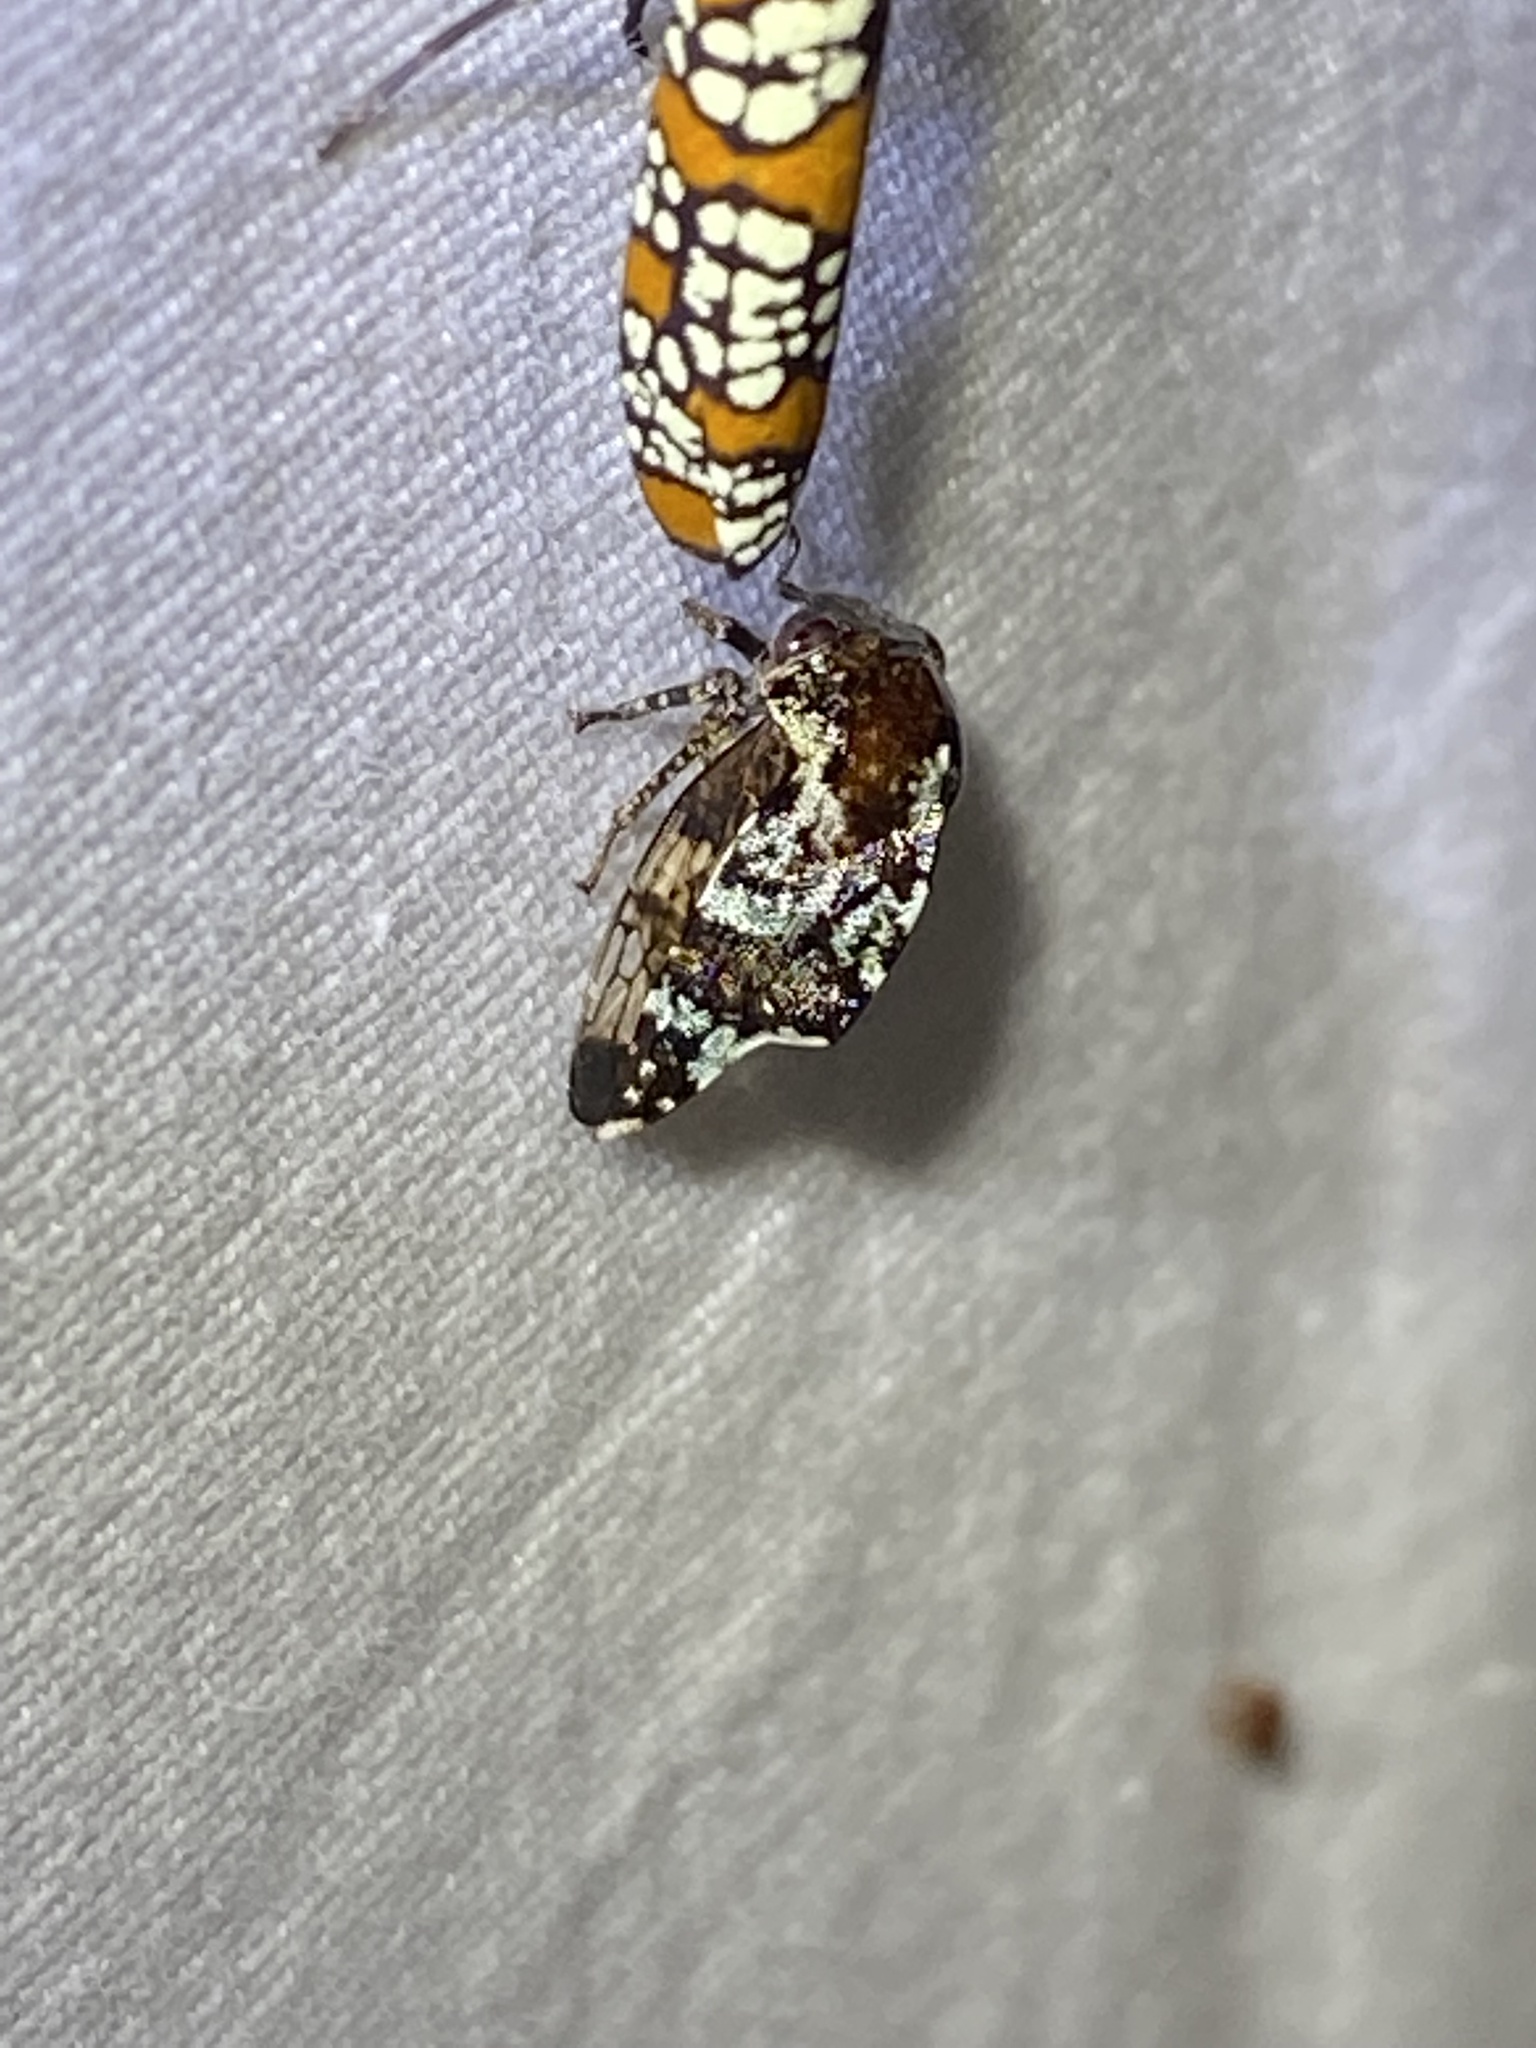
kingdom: Animalia
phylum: Arthropoda
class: Insecta
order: Hemiptera
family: Membracidae
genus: Telamona
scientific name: Telamona
